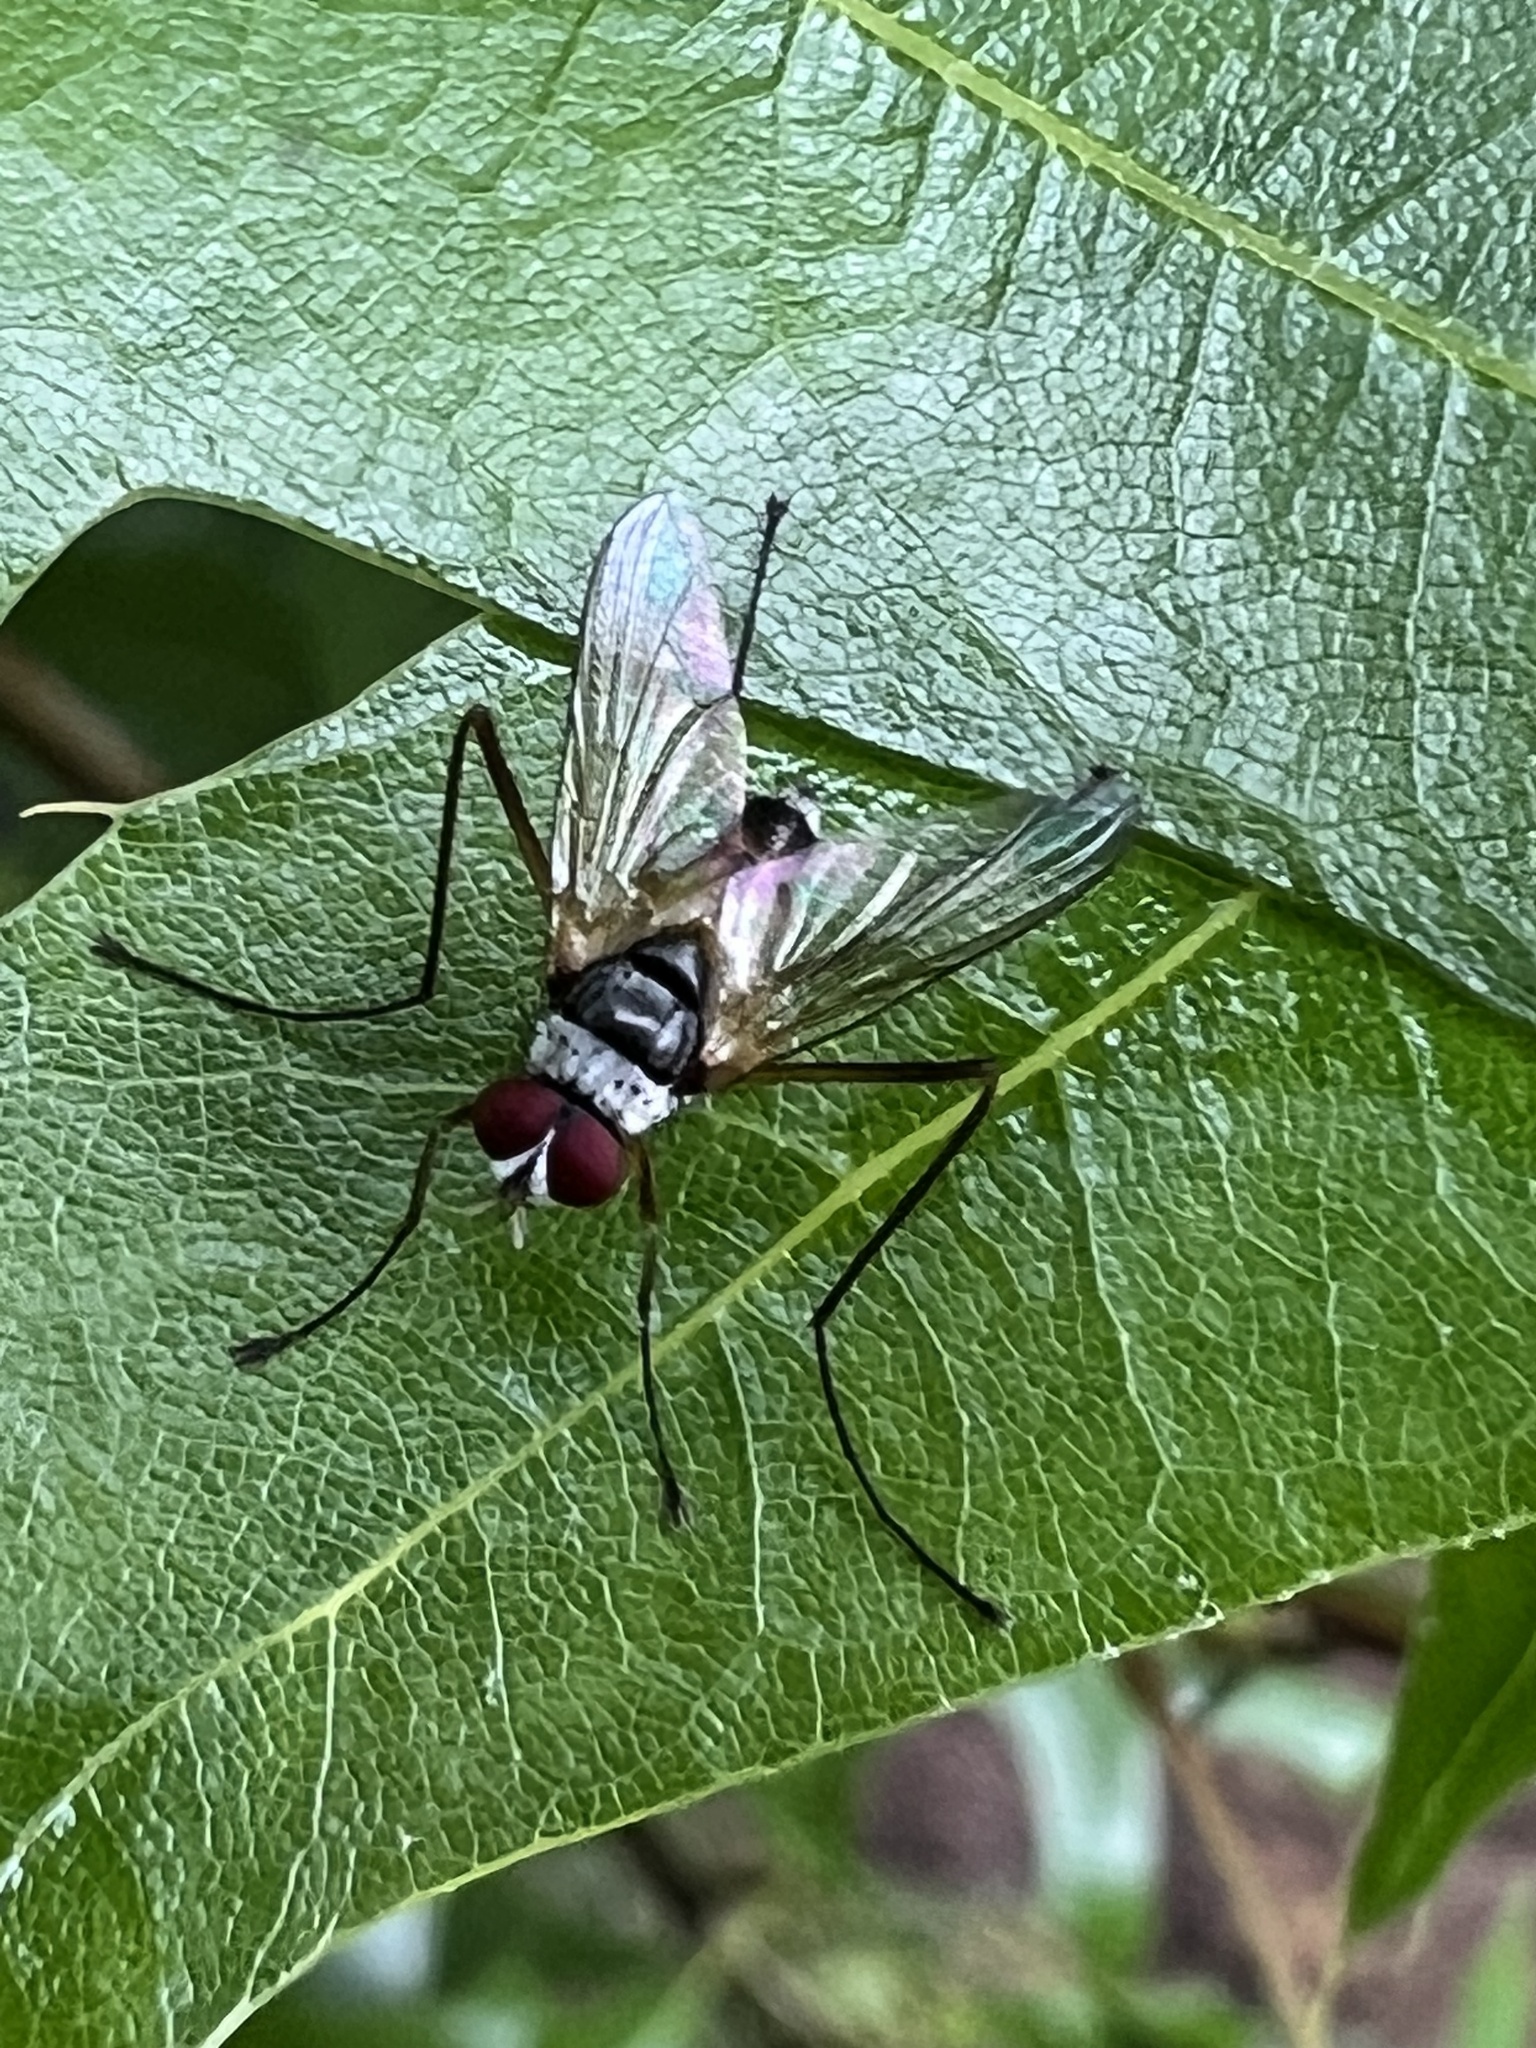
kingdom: Animalia
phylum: Arthropoda
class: Insecta
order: Diptera
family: Tachinidae
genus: Cholomyia
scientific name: Cholomyia inaequipes
